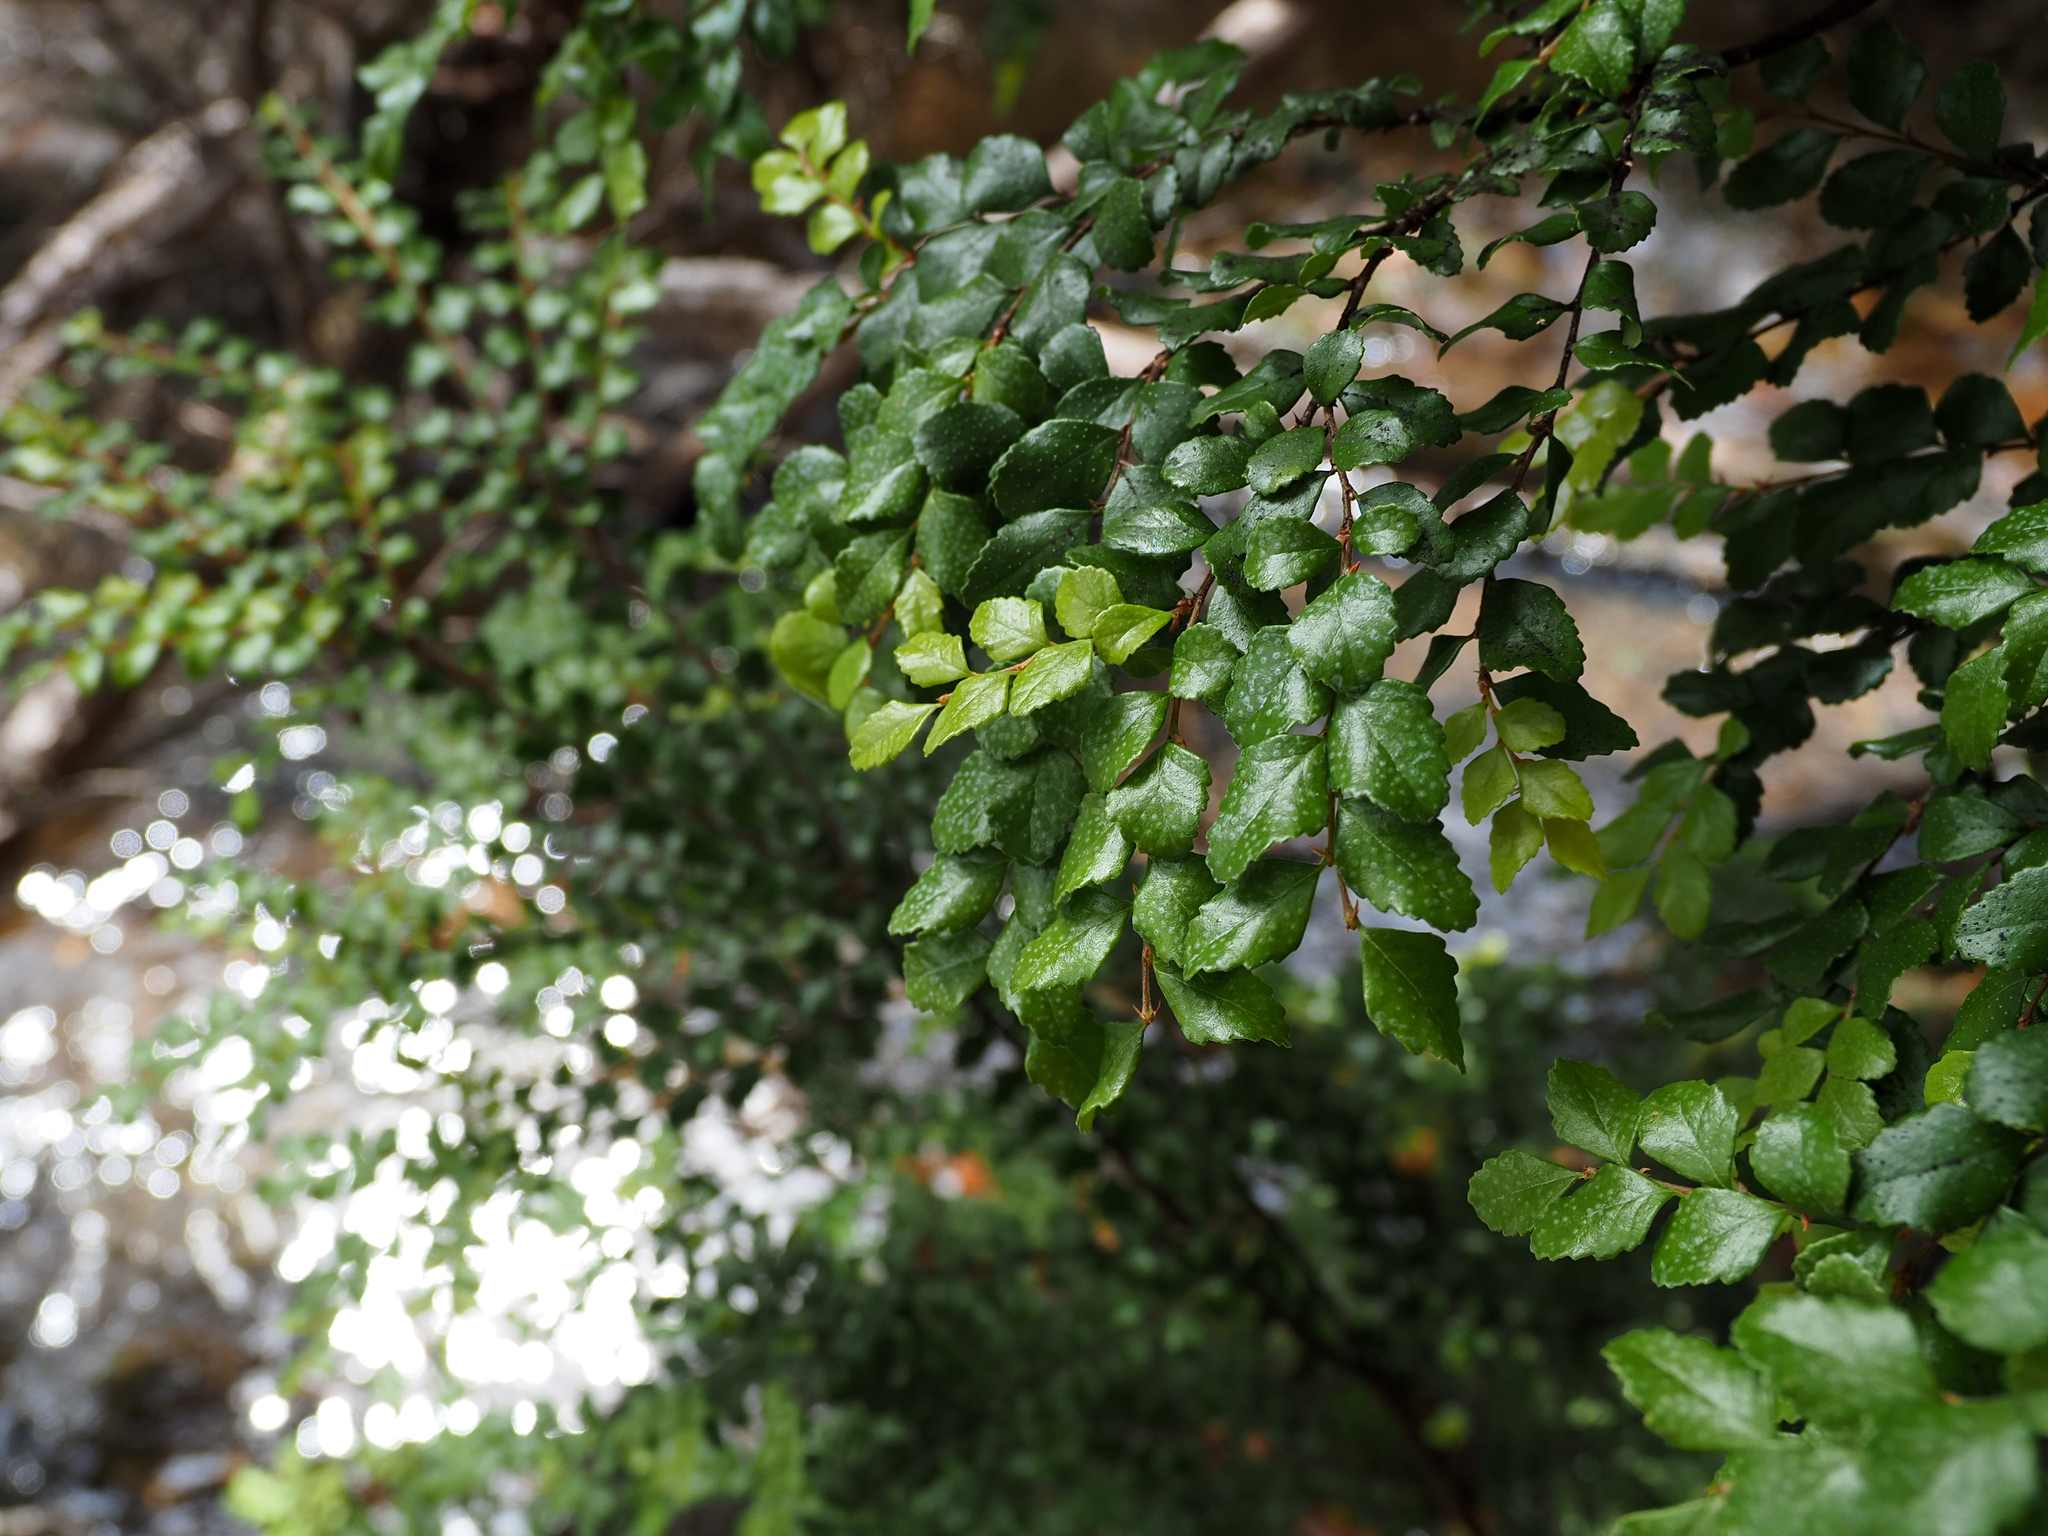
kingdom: Plantae
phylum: Tracheophyta
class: Magnoliopsida
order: Fagales
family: Nothofagaceae
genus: Nothofagus
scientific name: Nothofagus cunninghamii
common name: Myrtle beech
